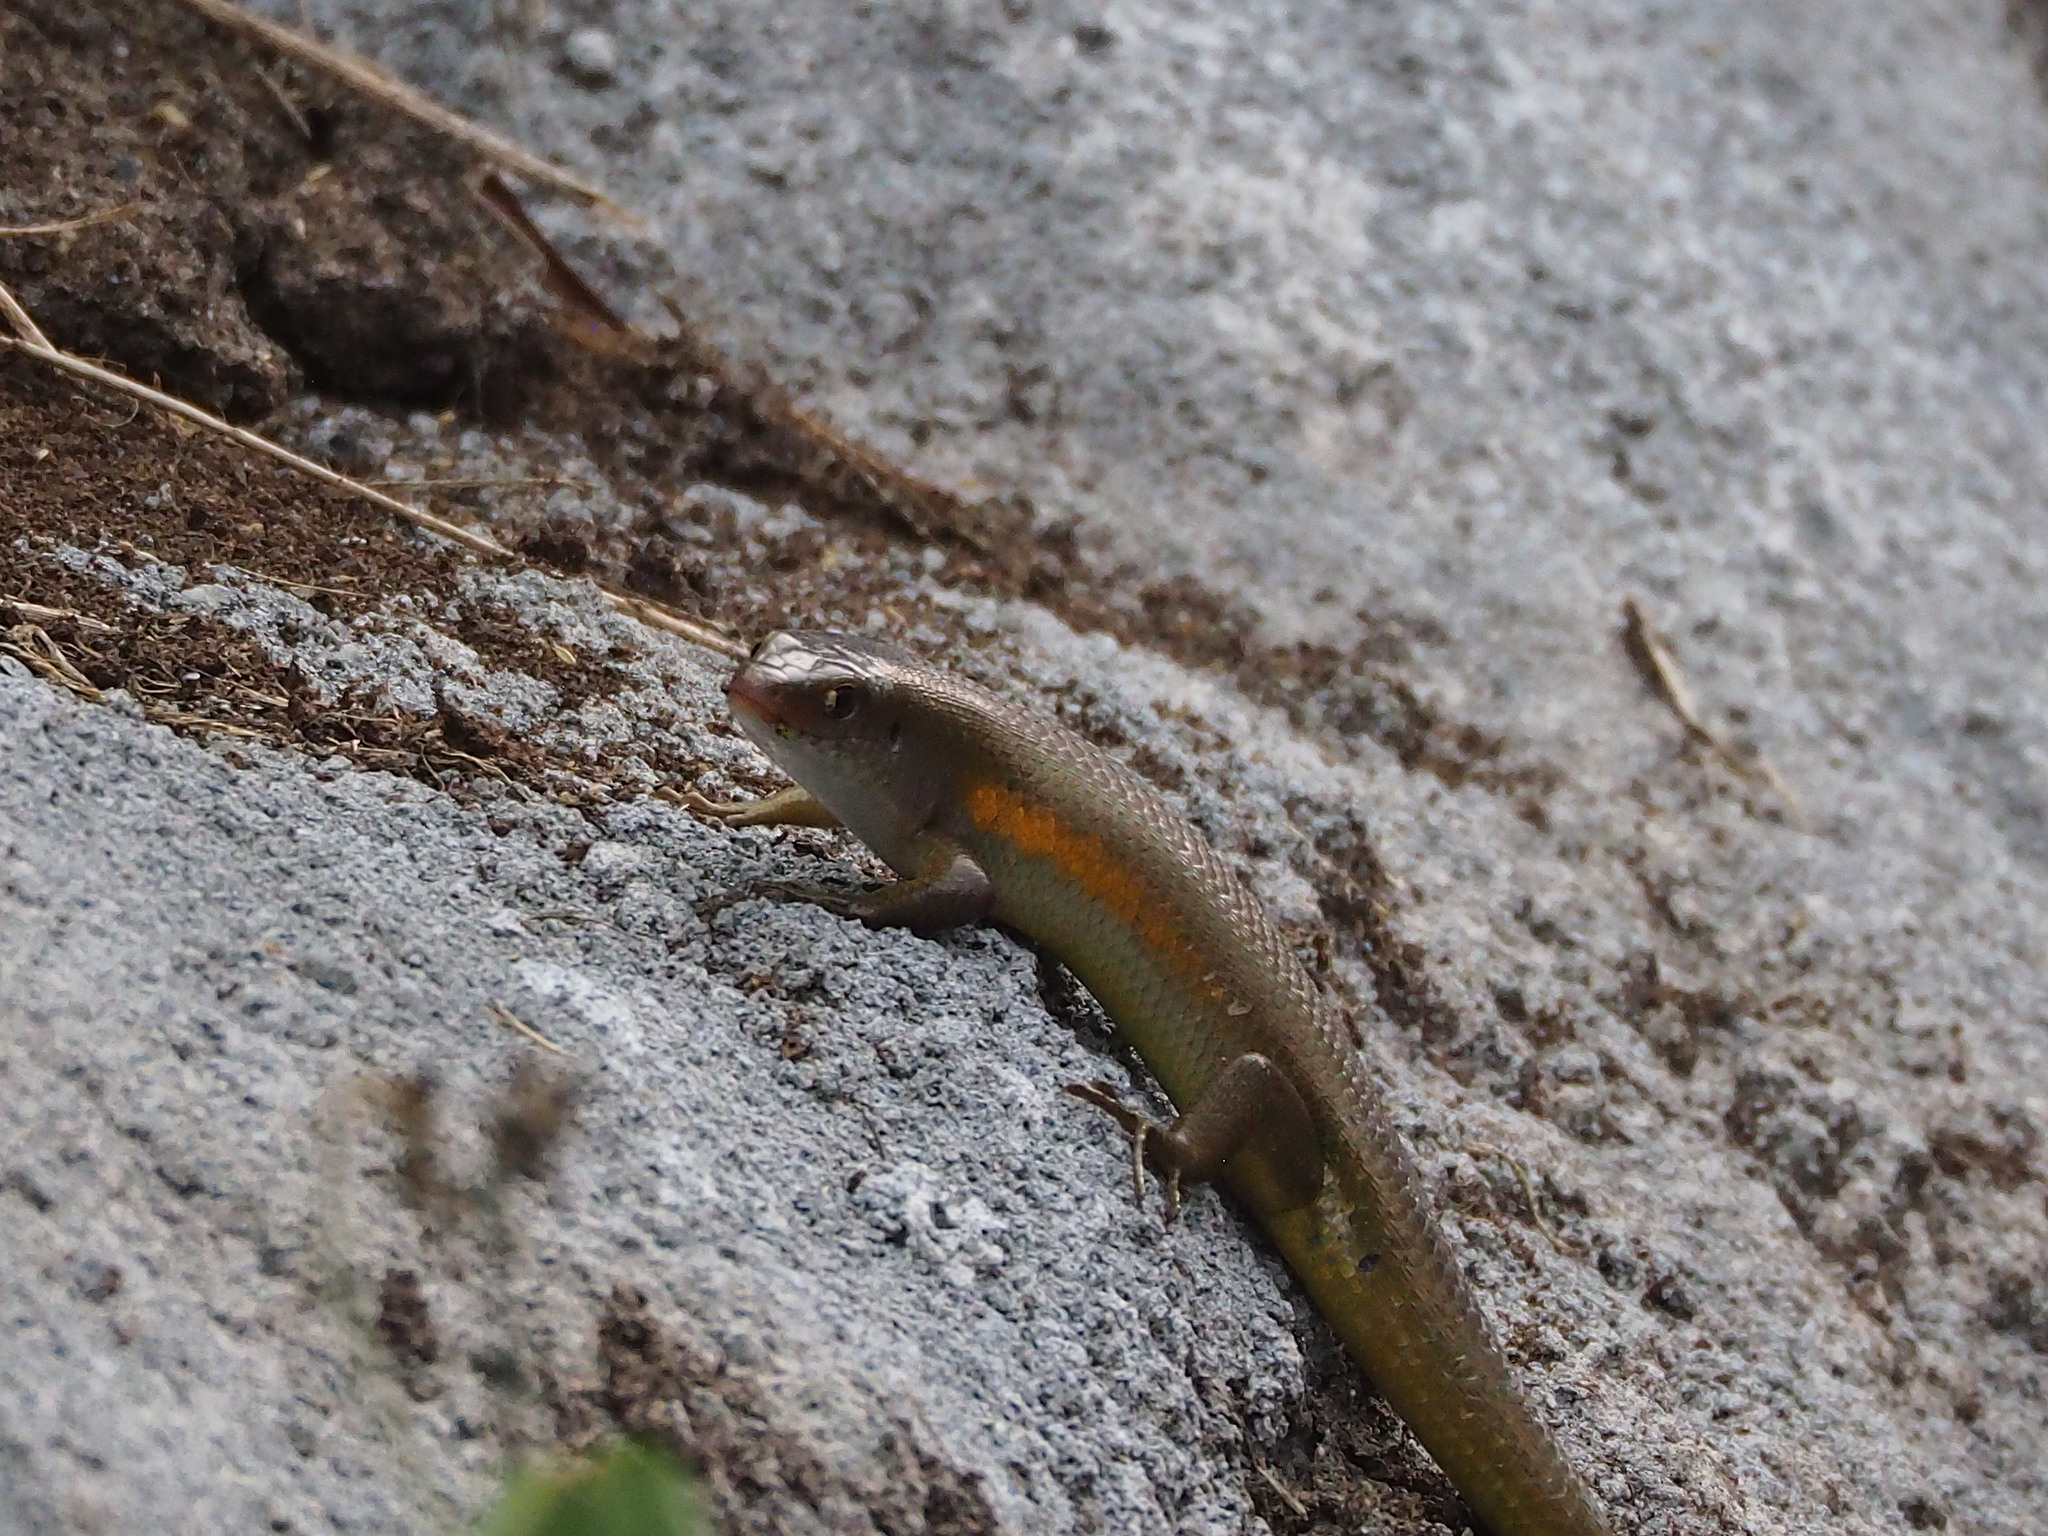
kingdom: Animalia
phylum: Chordata
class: Squamata
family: Scincidae
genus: Eutropis
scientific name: Eutropis multifasciata
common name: Common mabuya
